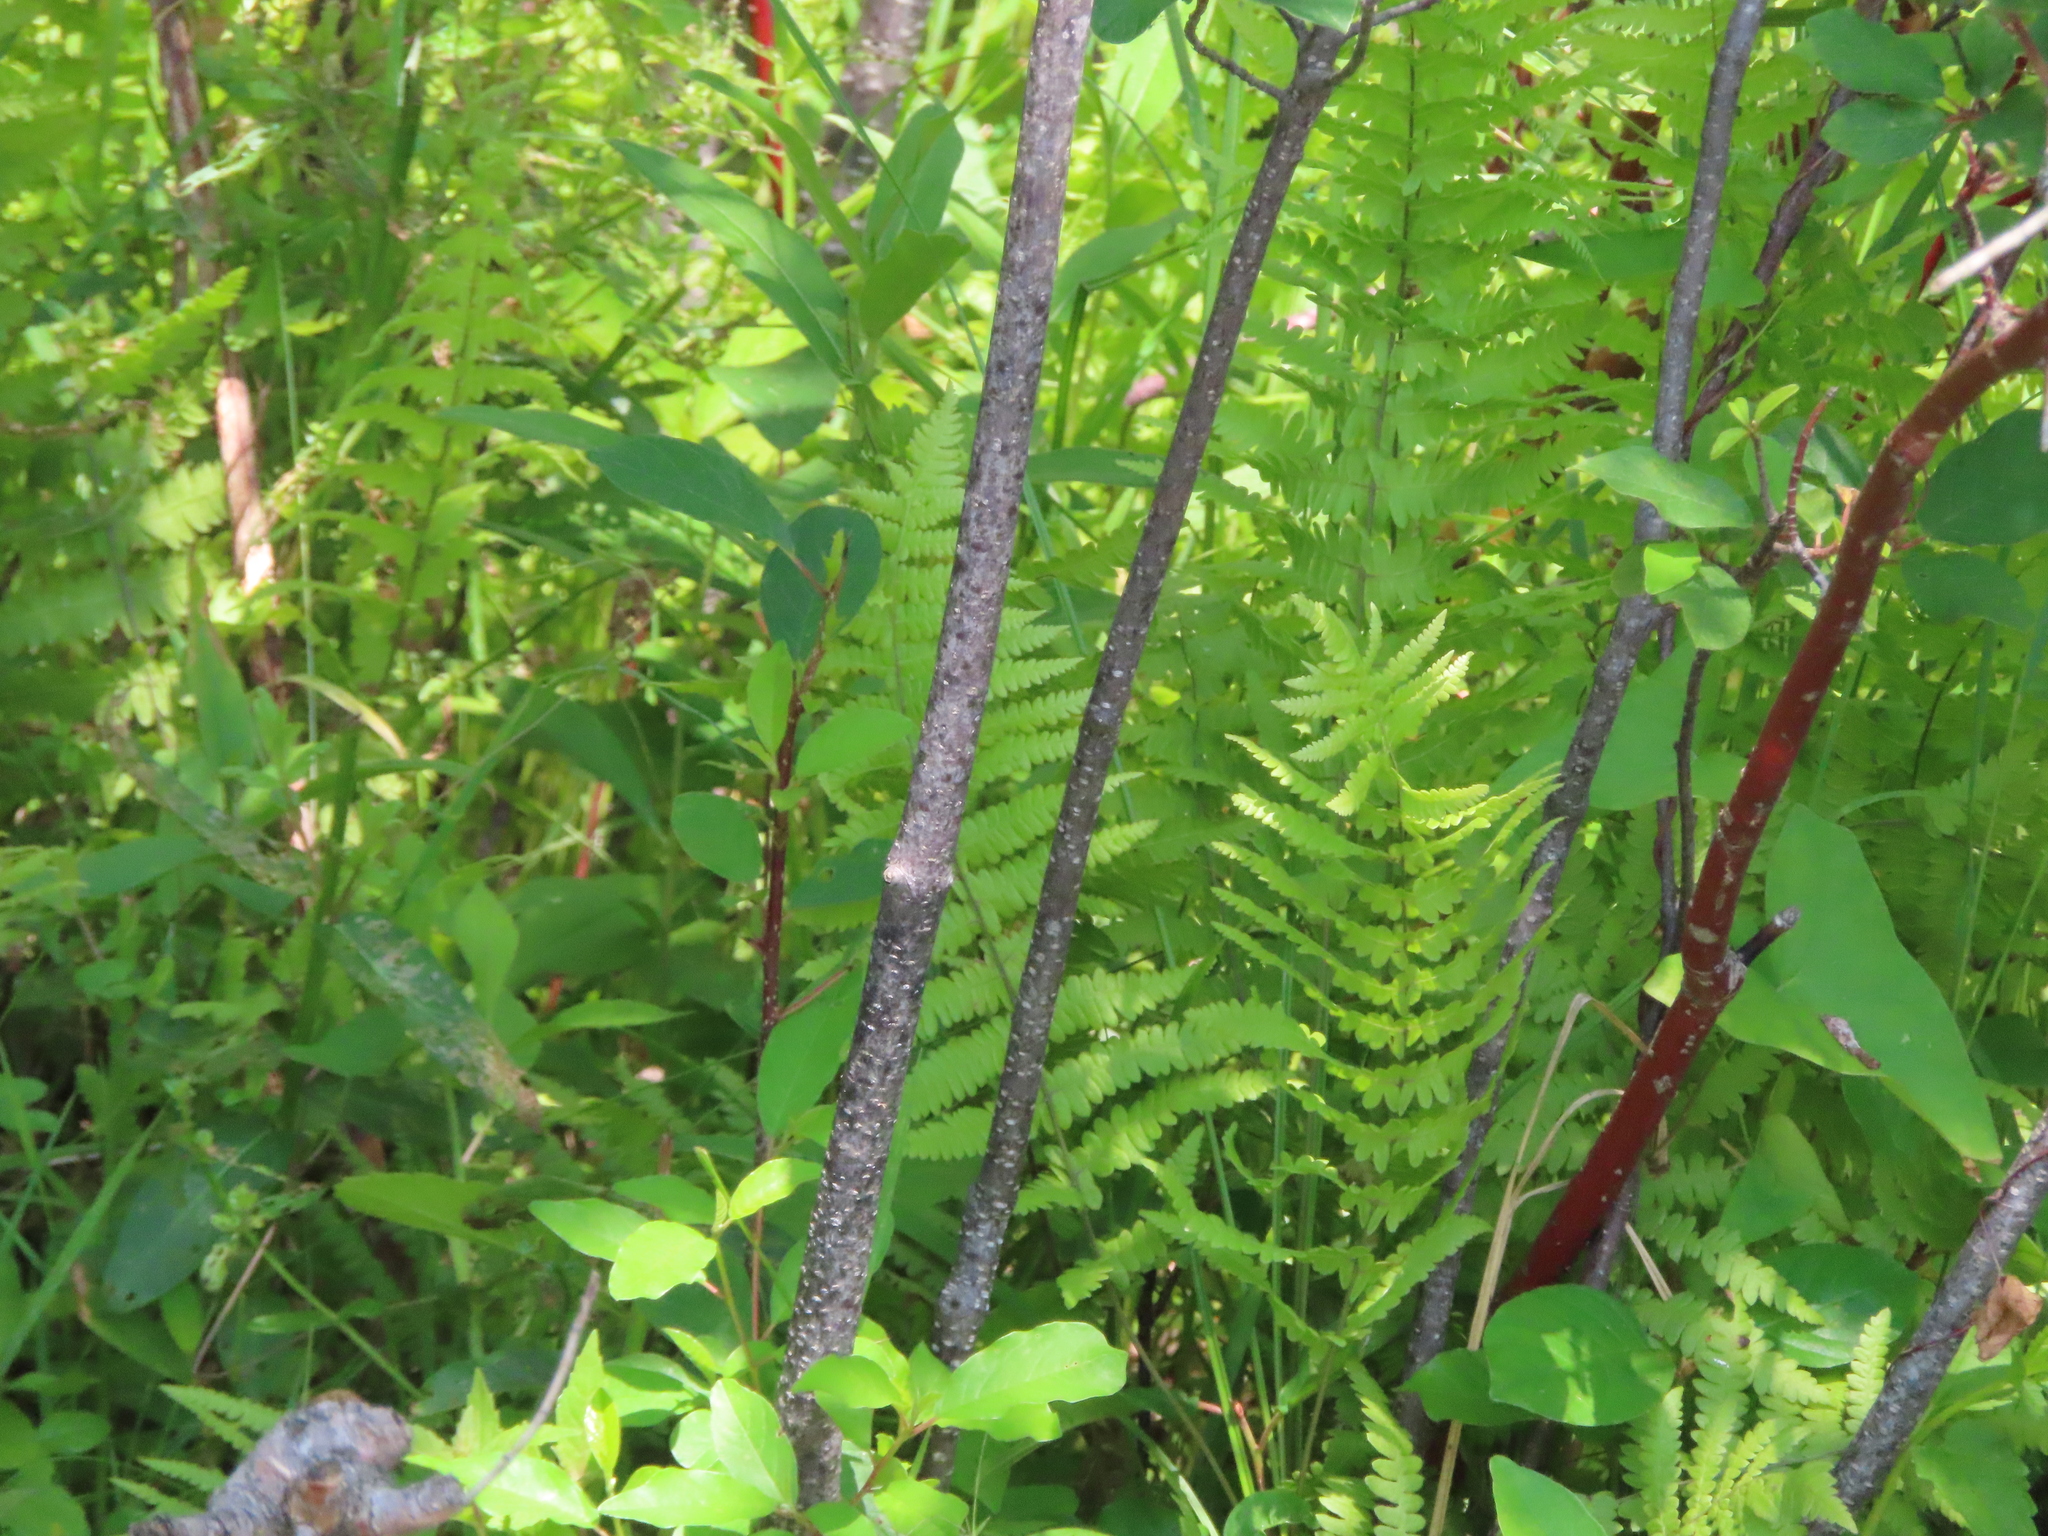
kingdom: Plantae
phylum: Tracheophyta
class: Polypodiopsida
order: Polypodiales
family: Thelypteridaceae
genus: Thelypteris
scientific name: Thelypteris palustris
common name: Marsh fern
